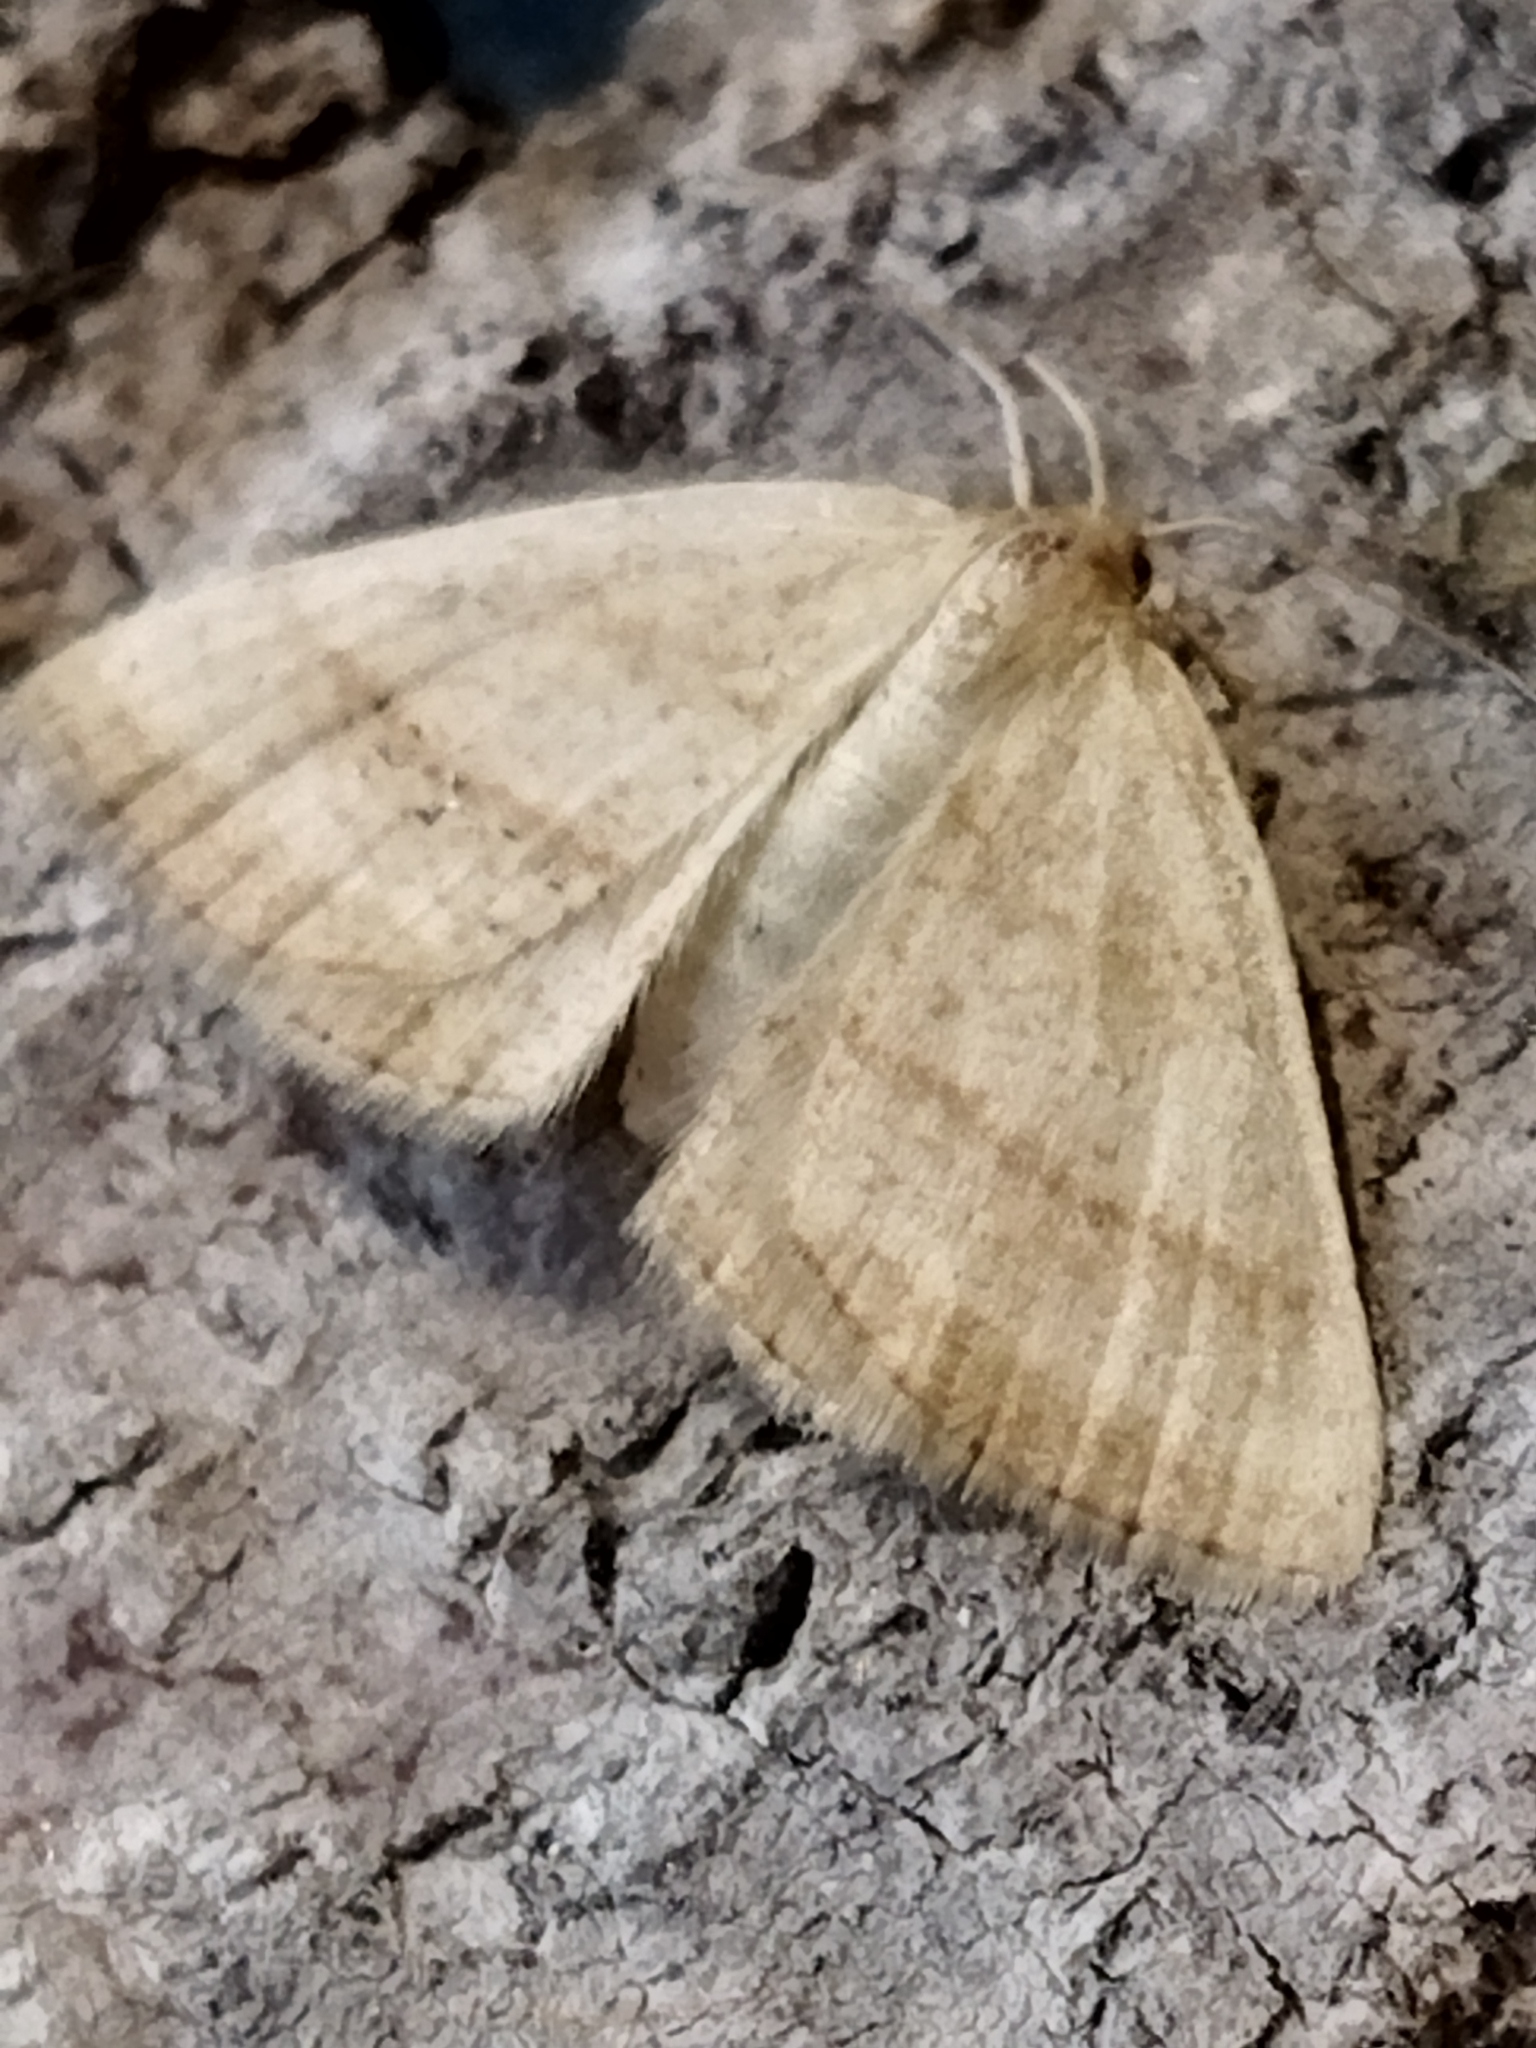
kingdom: Animalia
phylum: Arthropoda
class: Insecta
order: Lepidoptera
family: Geometridae
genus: Aplasta
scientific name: Aplasta ononaria
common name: Rest harrow
